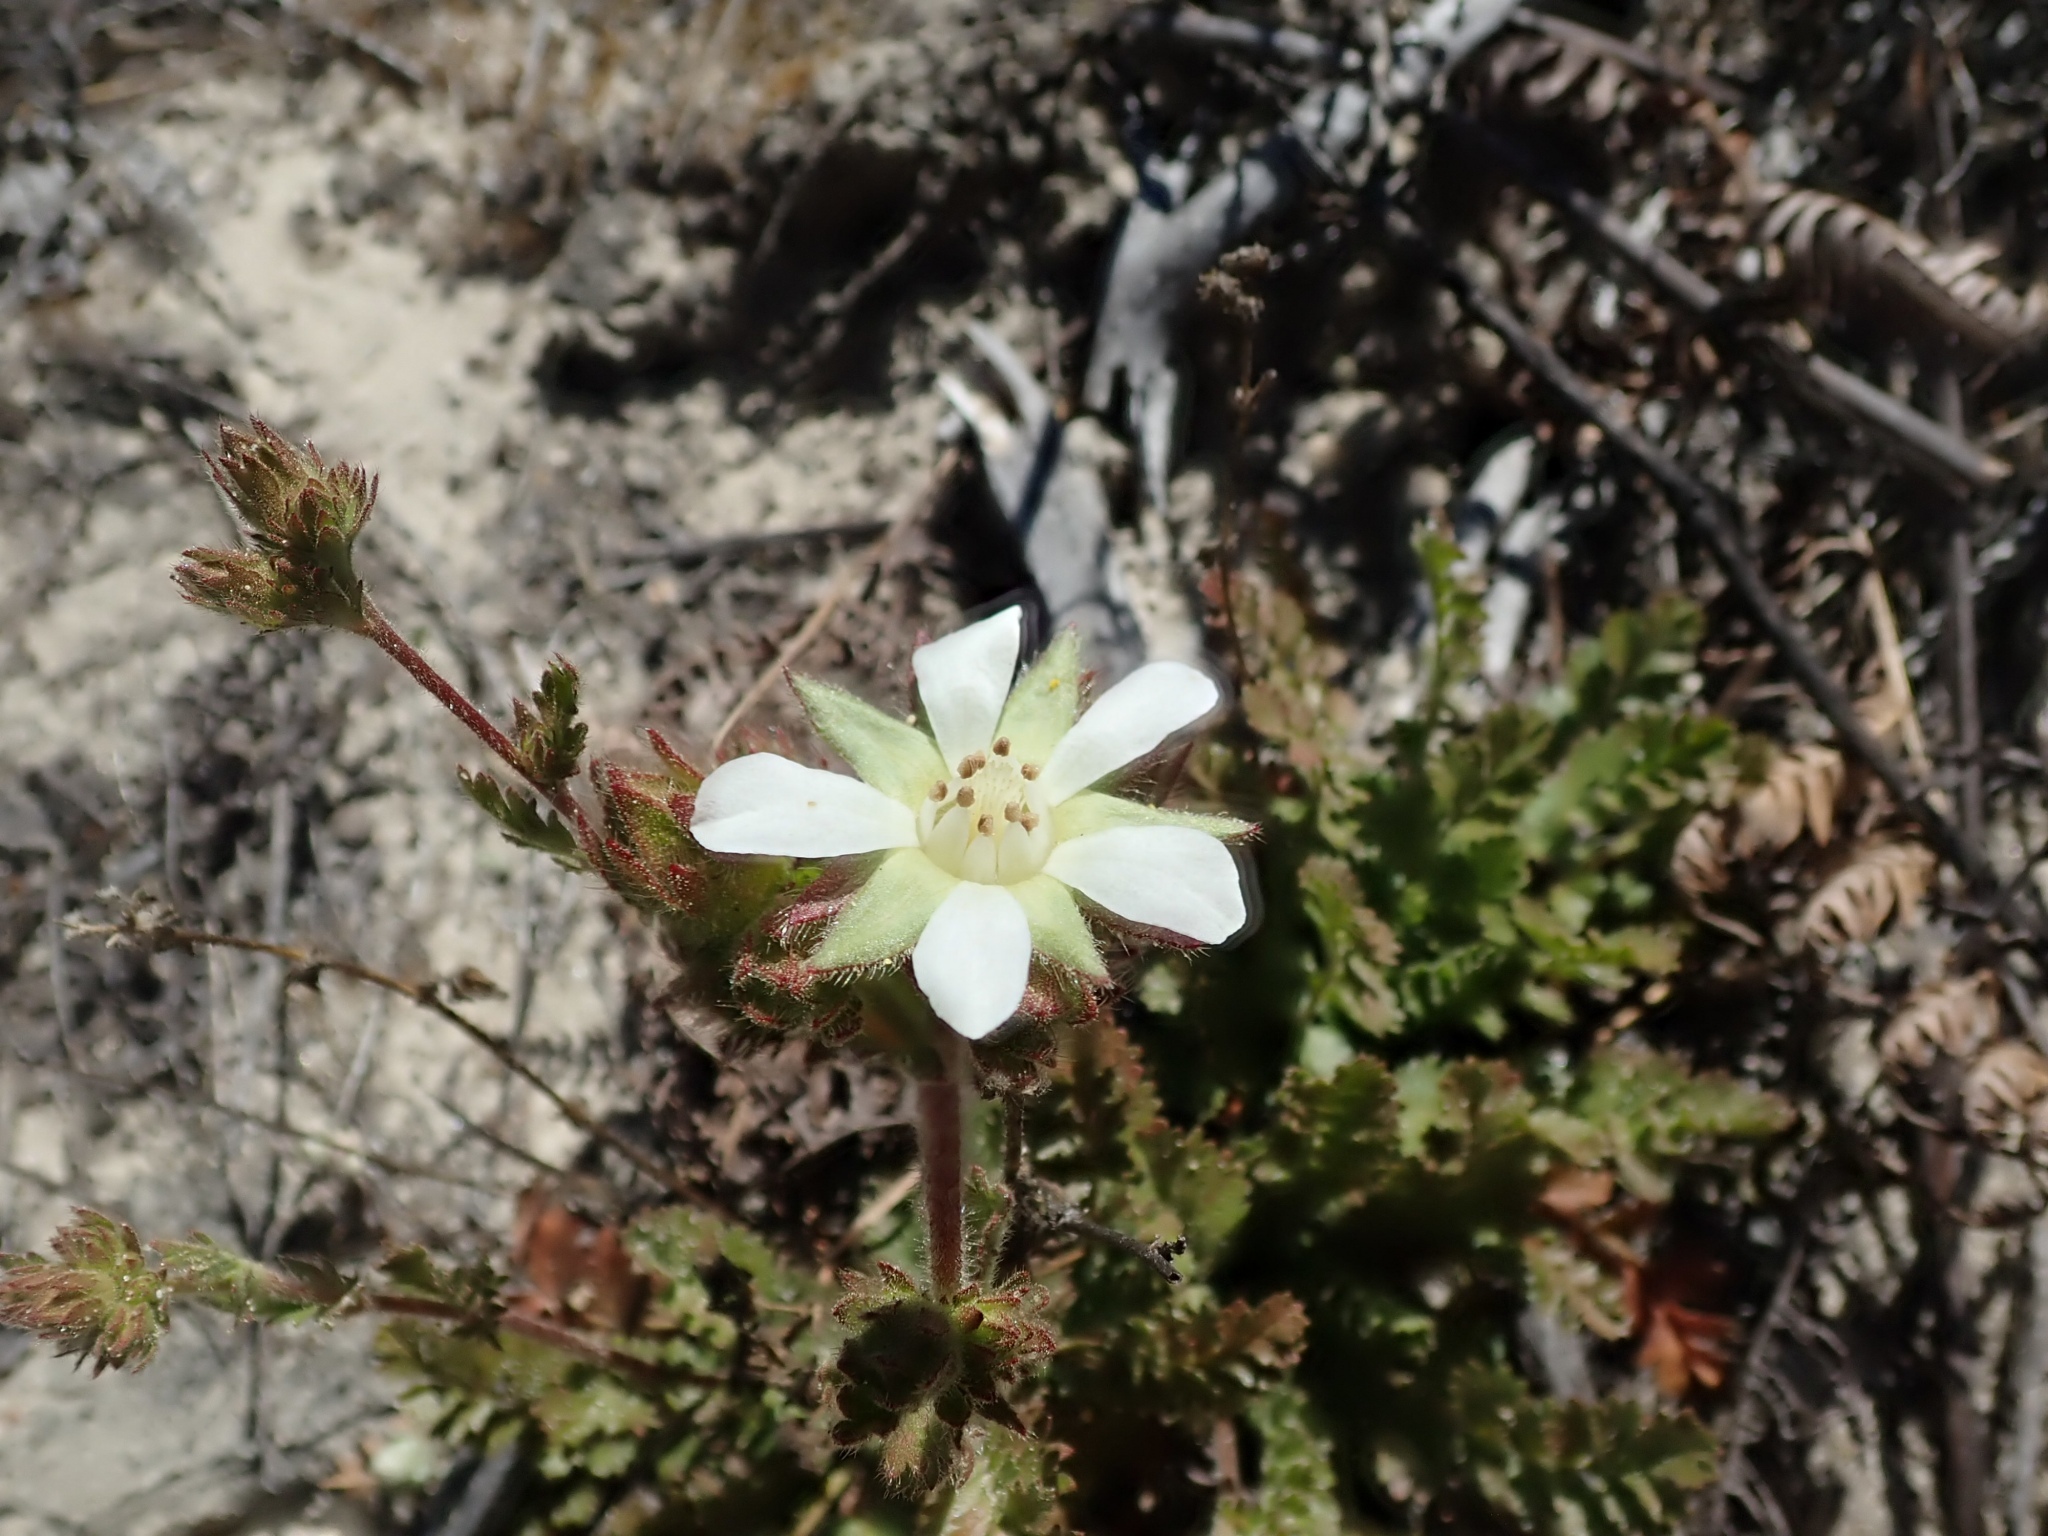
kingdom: Plantae
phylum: Tracheophyta
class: Magnoliopsida
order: Rosales
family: Rosaceae
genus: Potentilla
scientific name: Potentilla
